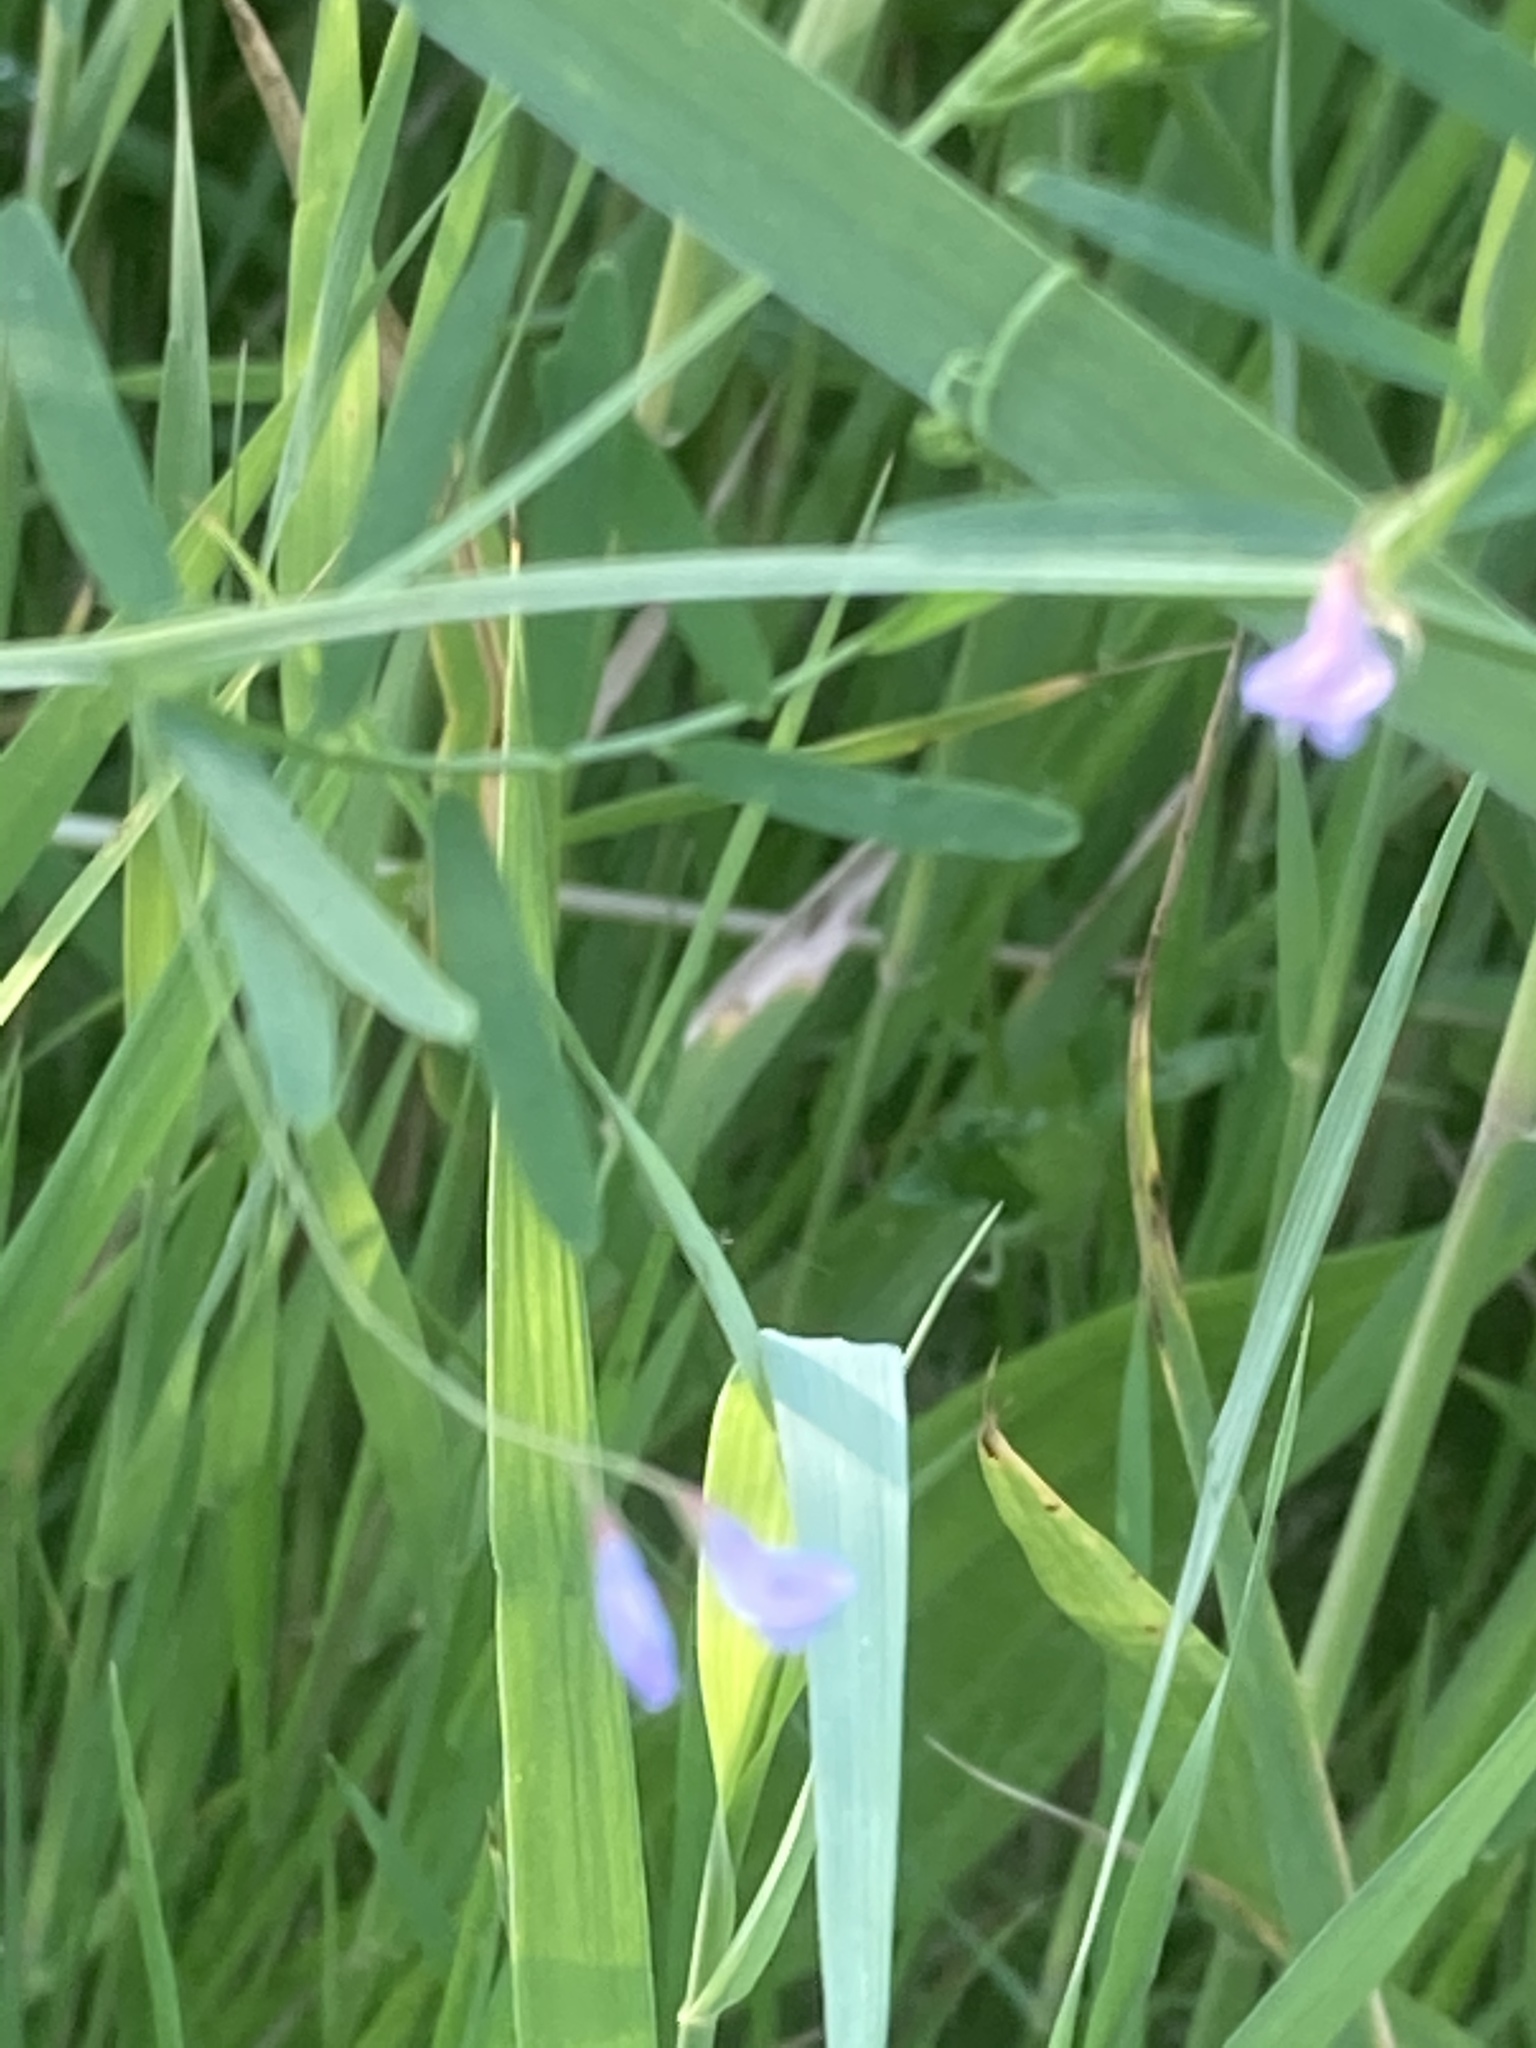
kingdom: Plantae
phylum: Tracheophyta
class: Magnoliopsida
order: Fabales
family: Fabaceae
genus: Vicia
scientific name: Vicia tetrasperma
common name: Smooth tare
